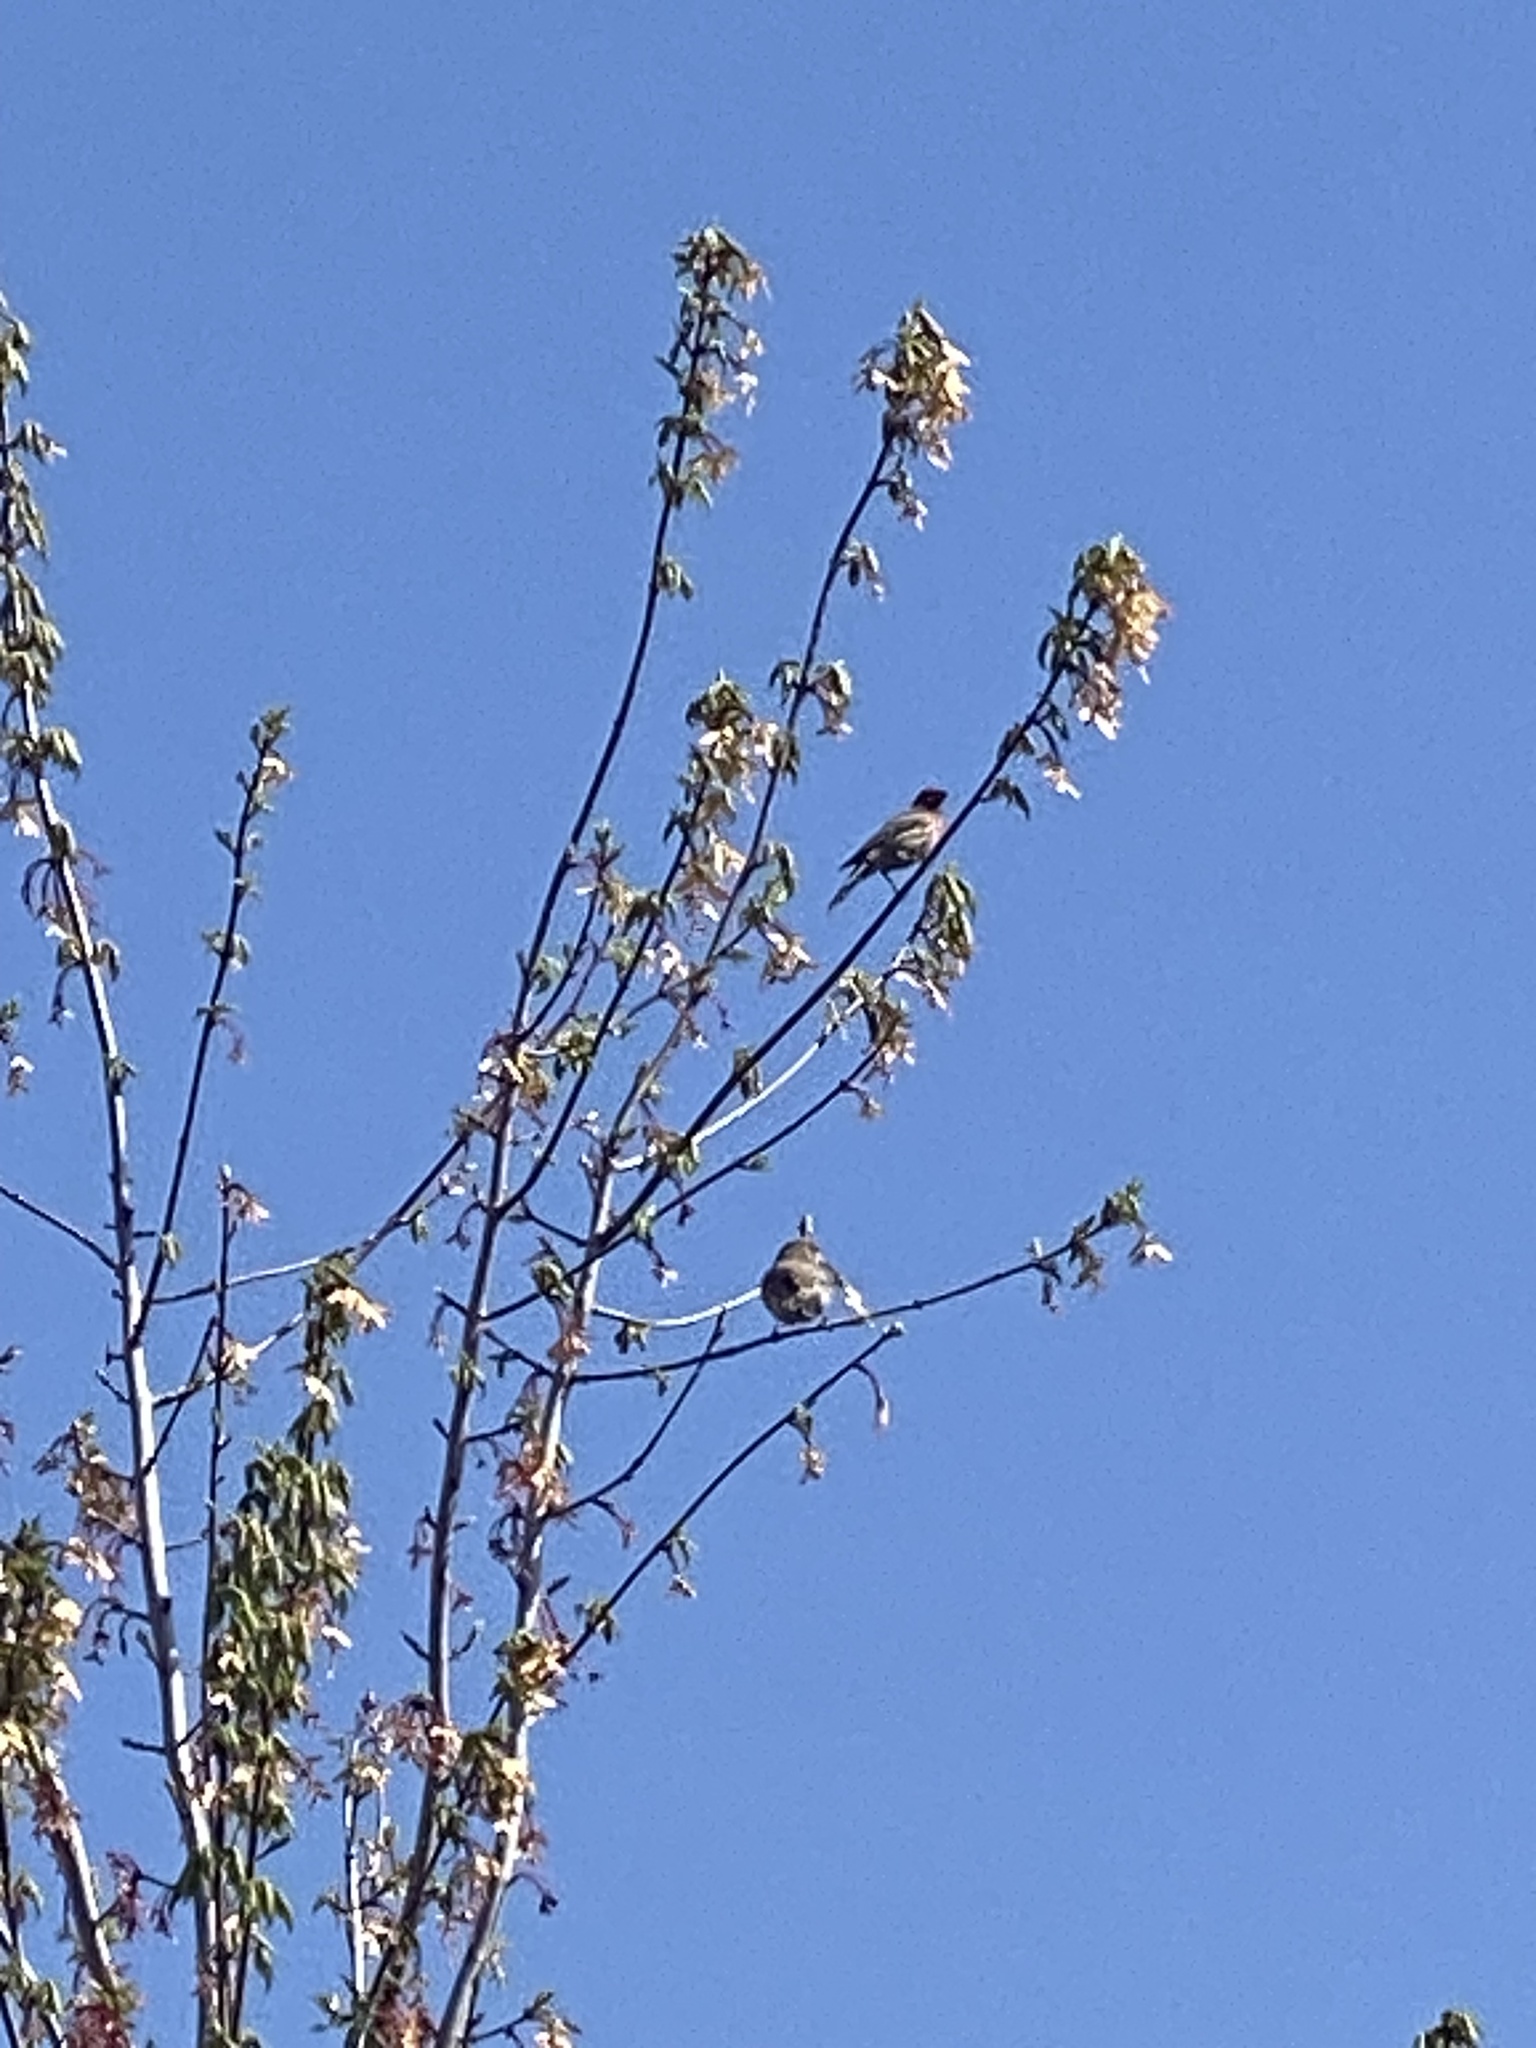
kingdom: Animalia
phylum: Chordata
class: Aves
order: Passeriformes
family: Fringillidae
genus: Haemorhous
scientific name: Haemorhous mexicanus
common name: House finch
